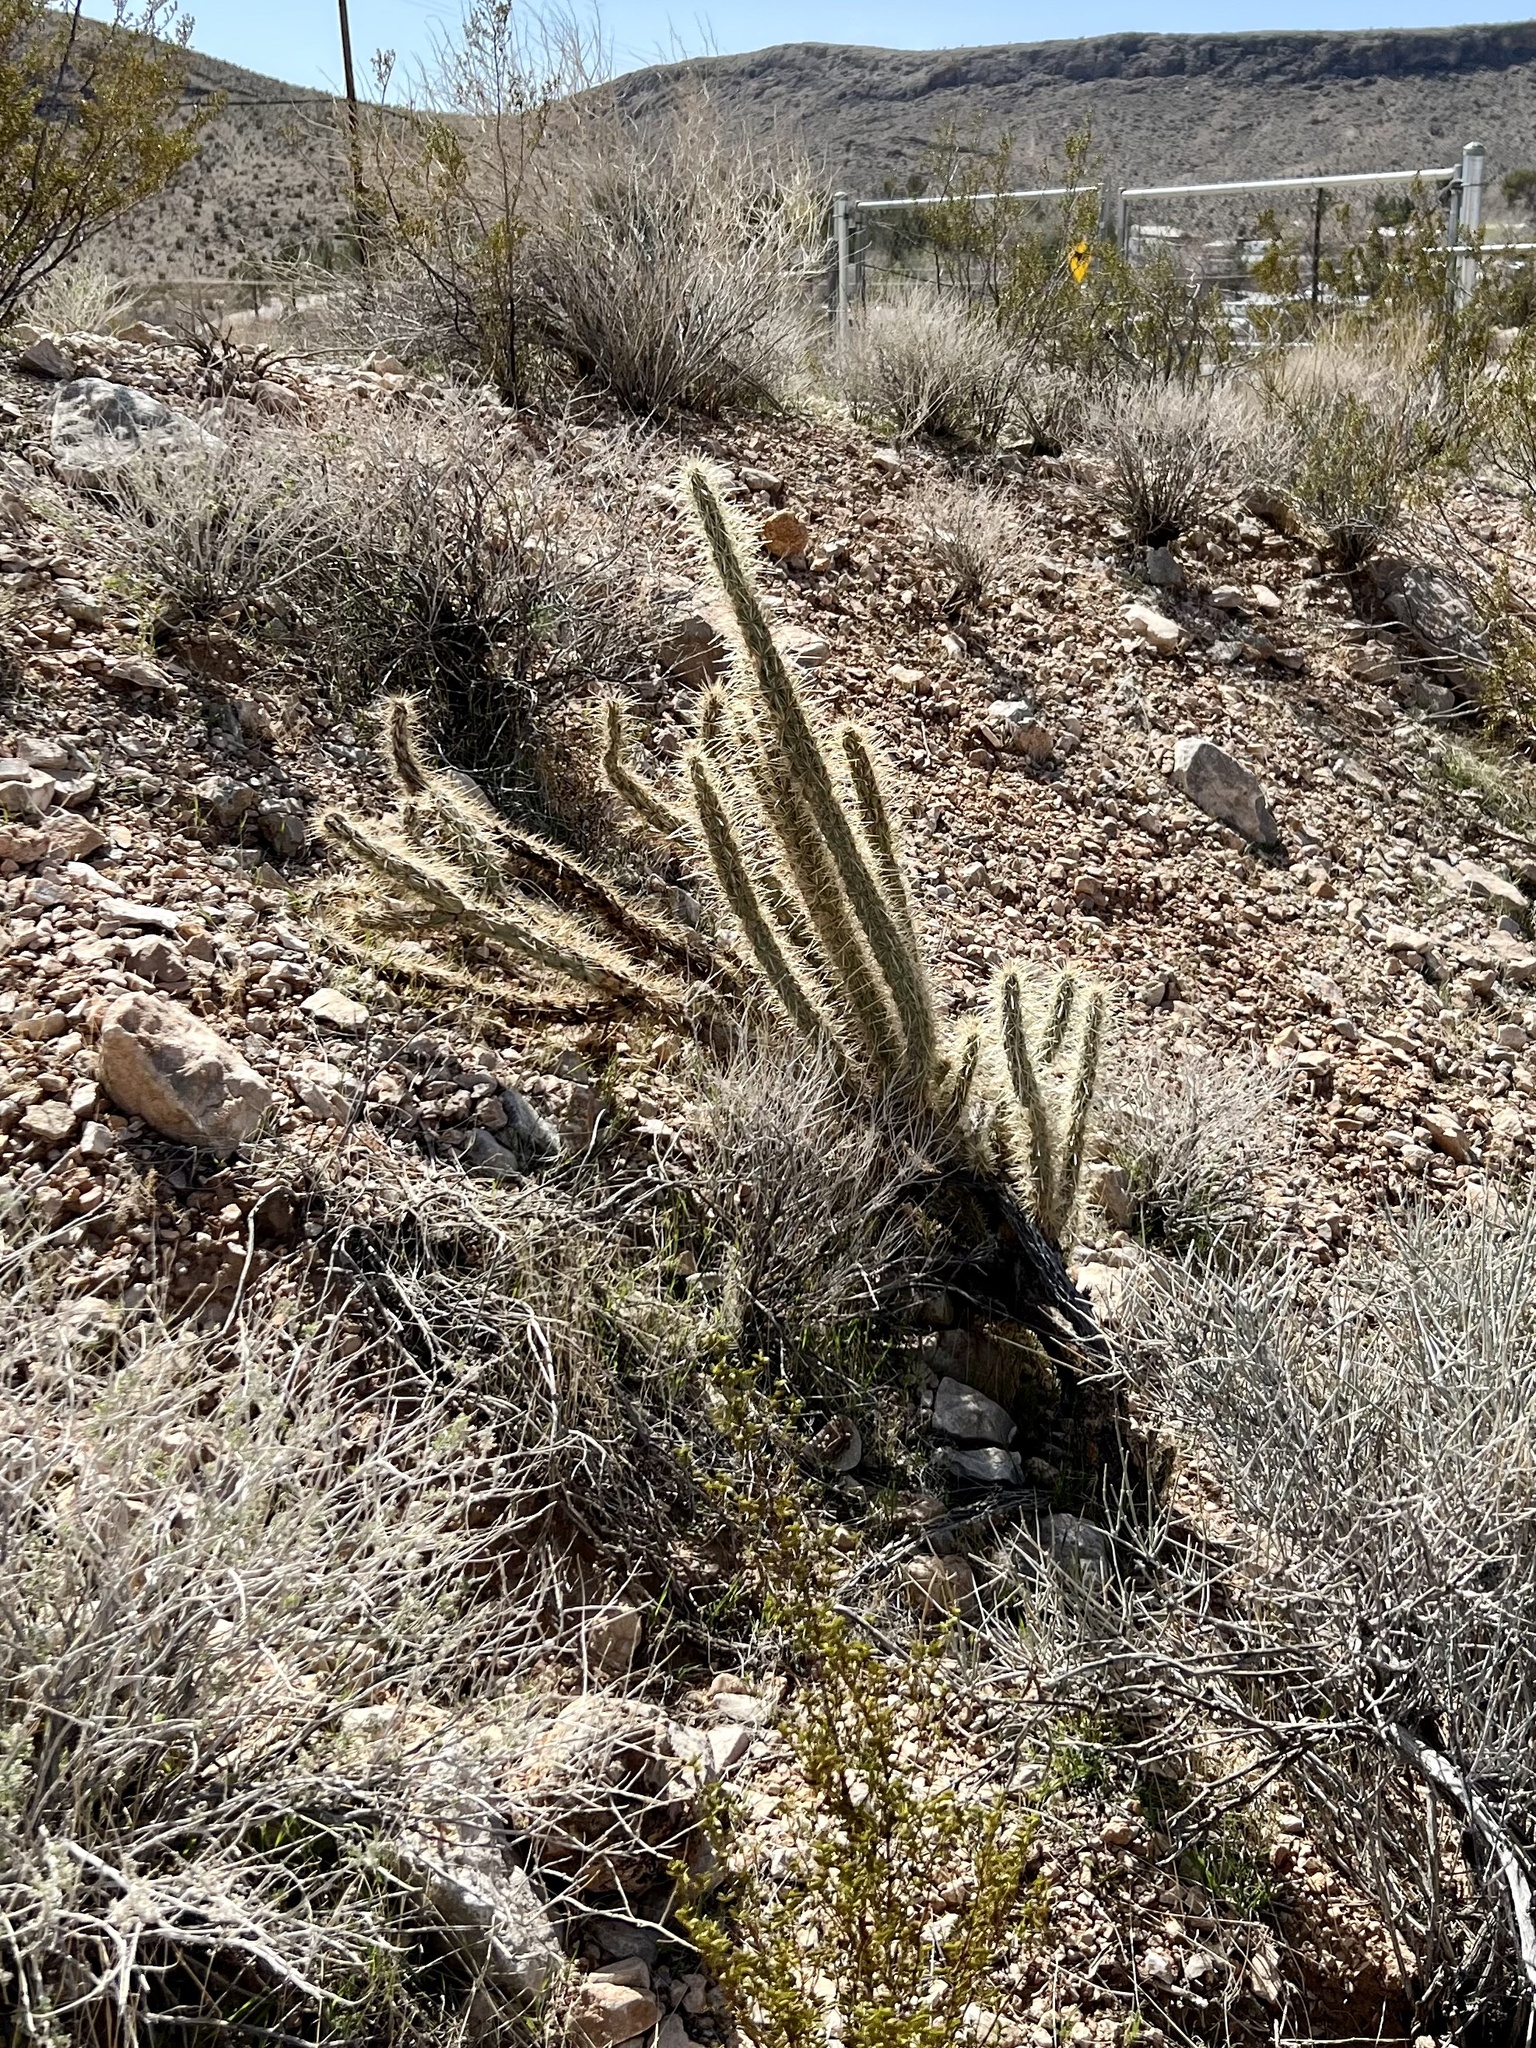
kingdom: Plantae
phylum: Tracheophyta
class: Magnoliopsida
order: Caryophyllales
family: Cactaceae
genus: Cylindropuntia
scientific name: Cylindropuntia acanthocarpa
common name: Buckhorn cholla
